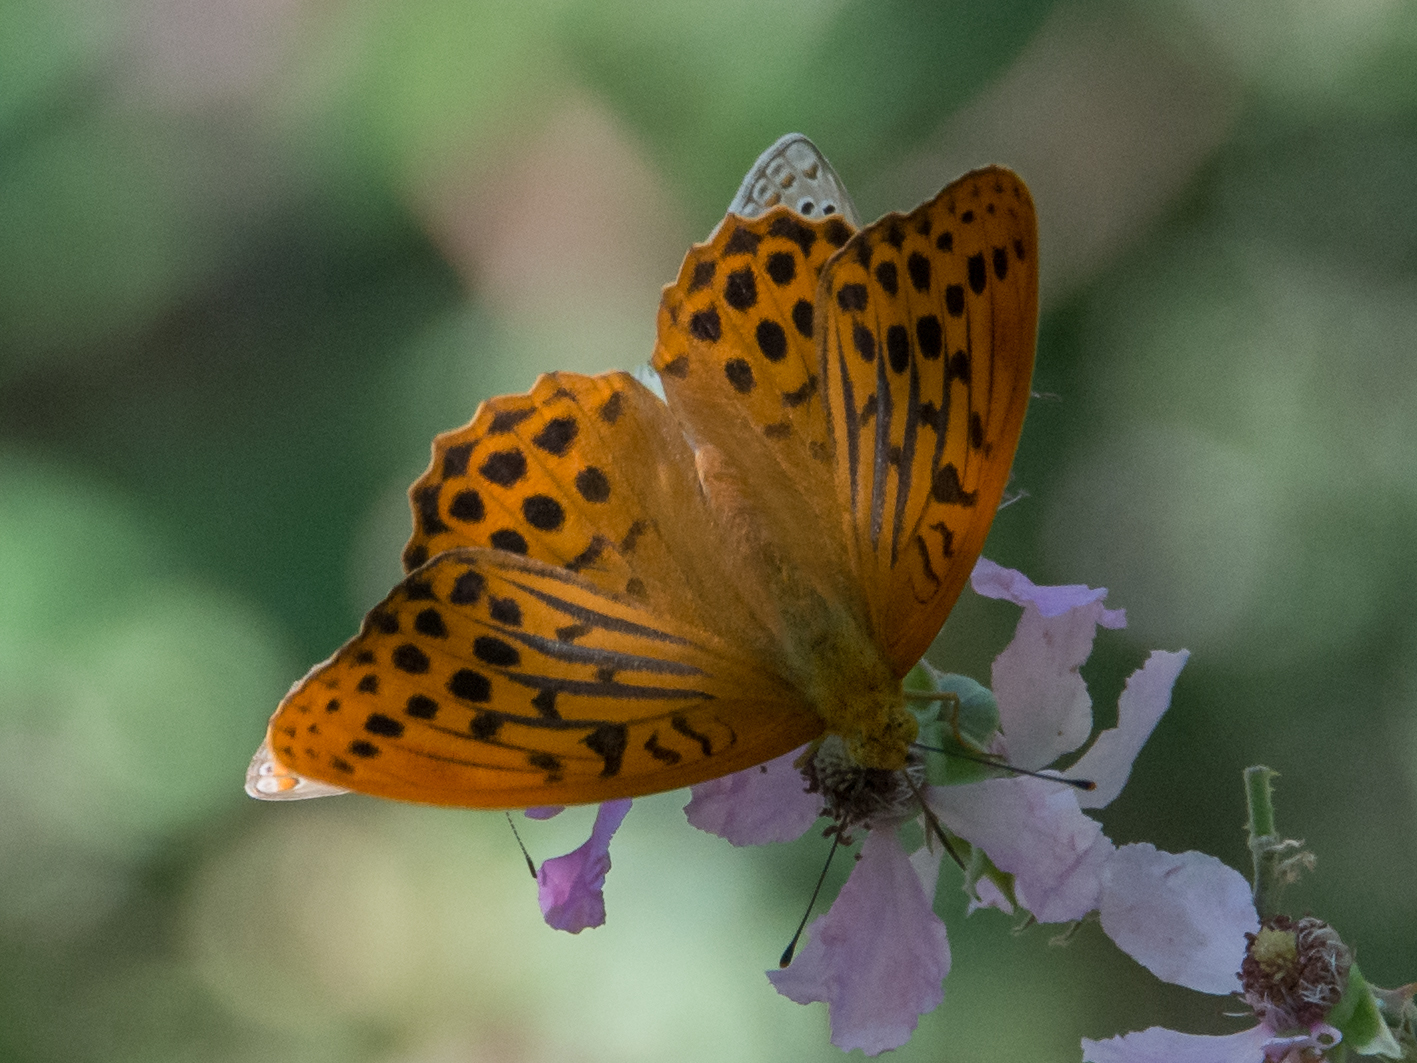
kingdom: Animalia
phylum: Arthropoda
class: Insecta
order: Lepidoptera
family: Nymphalidae
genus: Argynnis
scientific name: Argynnis paphia
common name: Silver-washed fritillary
